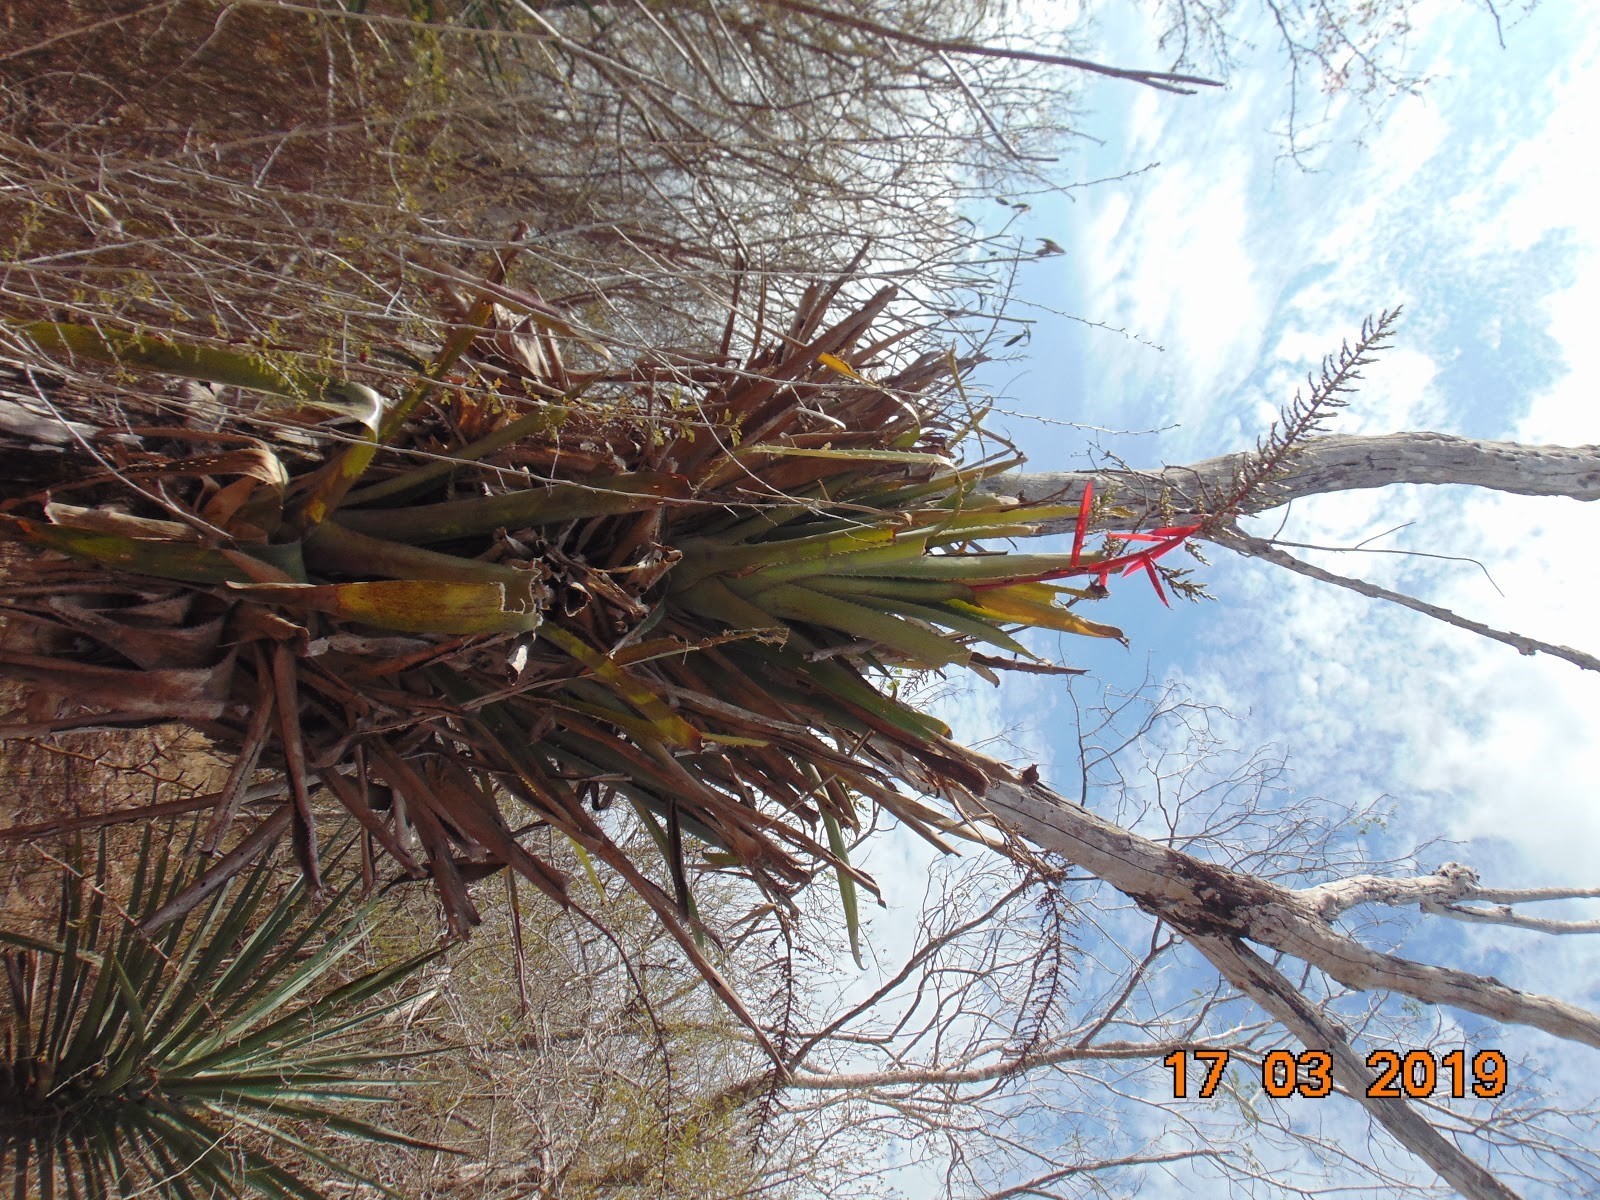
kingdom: Plantae
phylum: Tracheophyta
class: Liliopsida
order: Poales
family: Bromeliaceae
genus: Aechmea
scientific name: Aechmea bracteata
